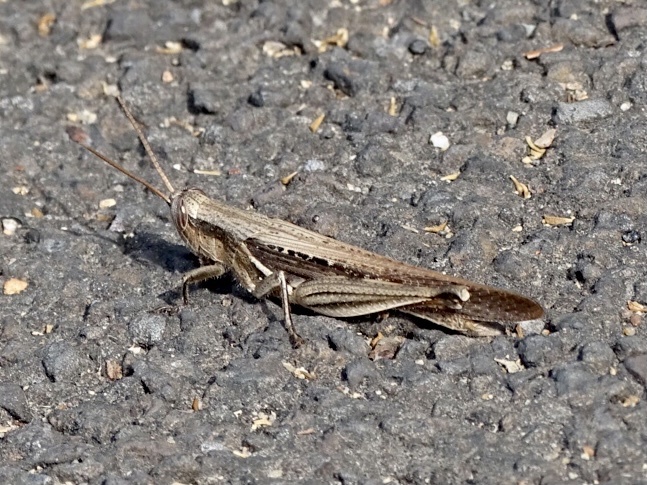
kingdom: Animalia
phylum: Arthropoda
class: Insecta
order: Orthoptera
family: Acrididae
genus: Stenocatantops
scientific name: Stenocatantops mistshenkoi
